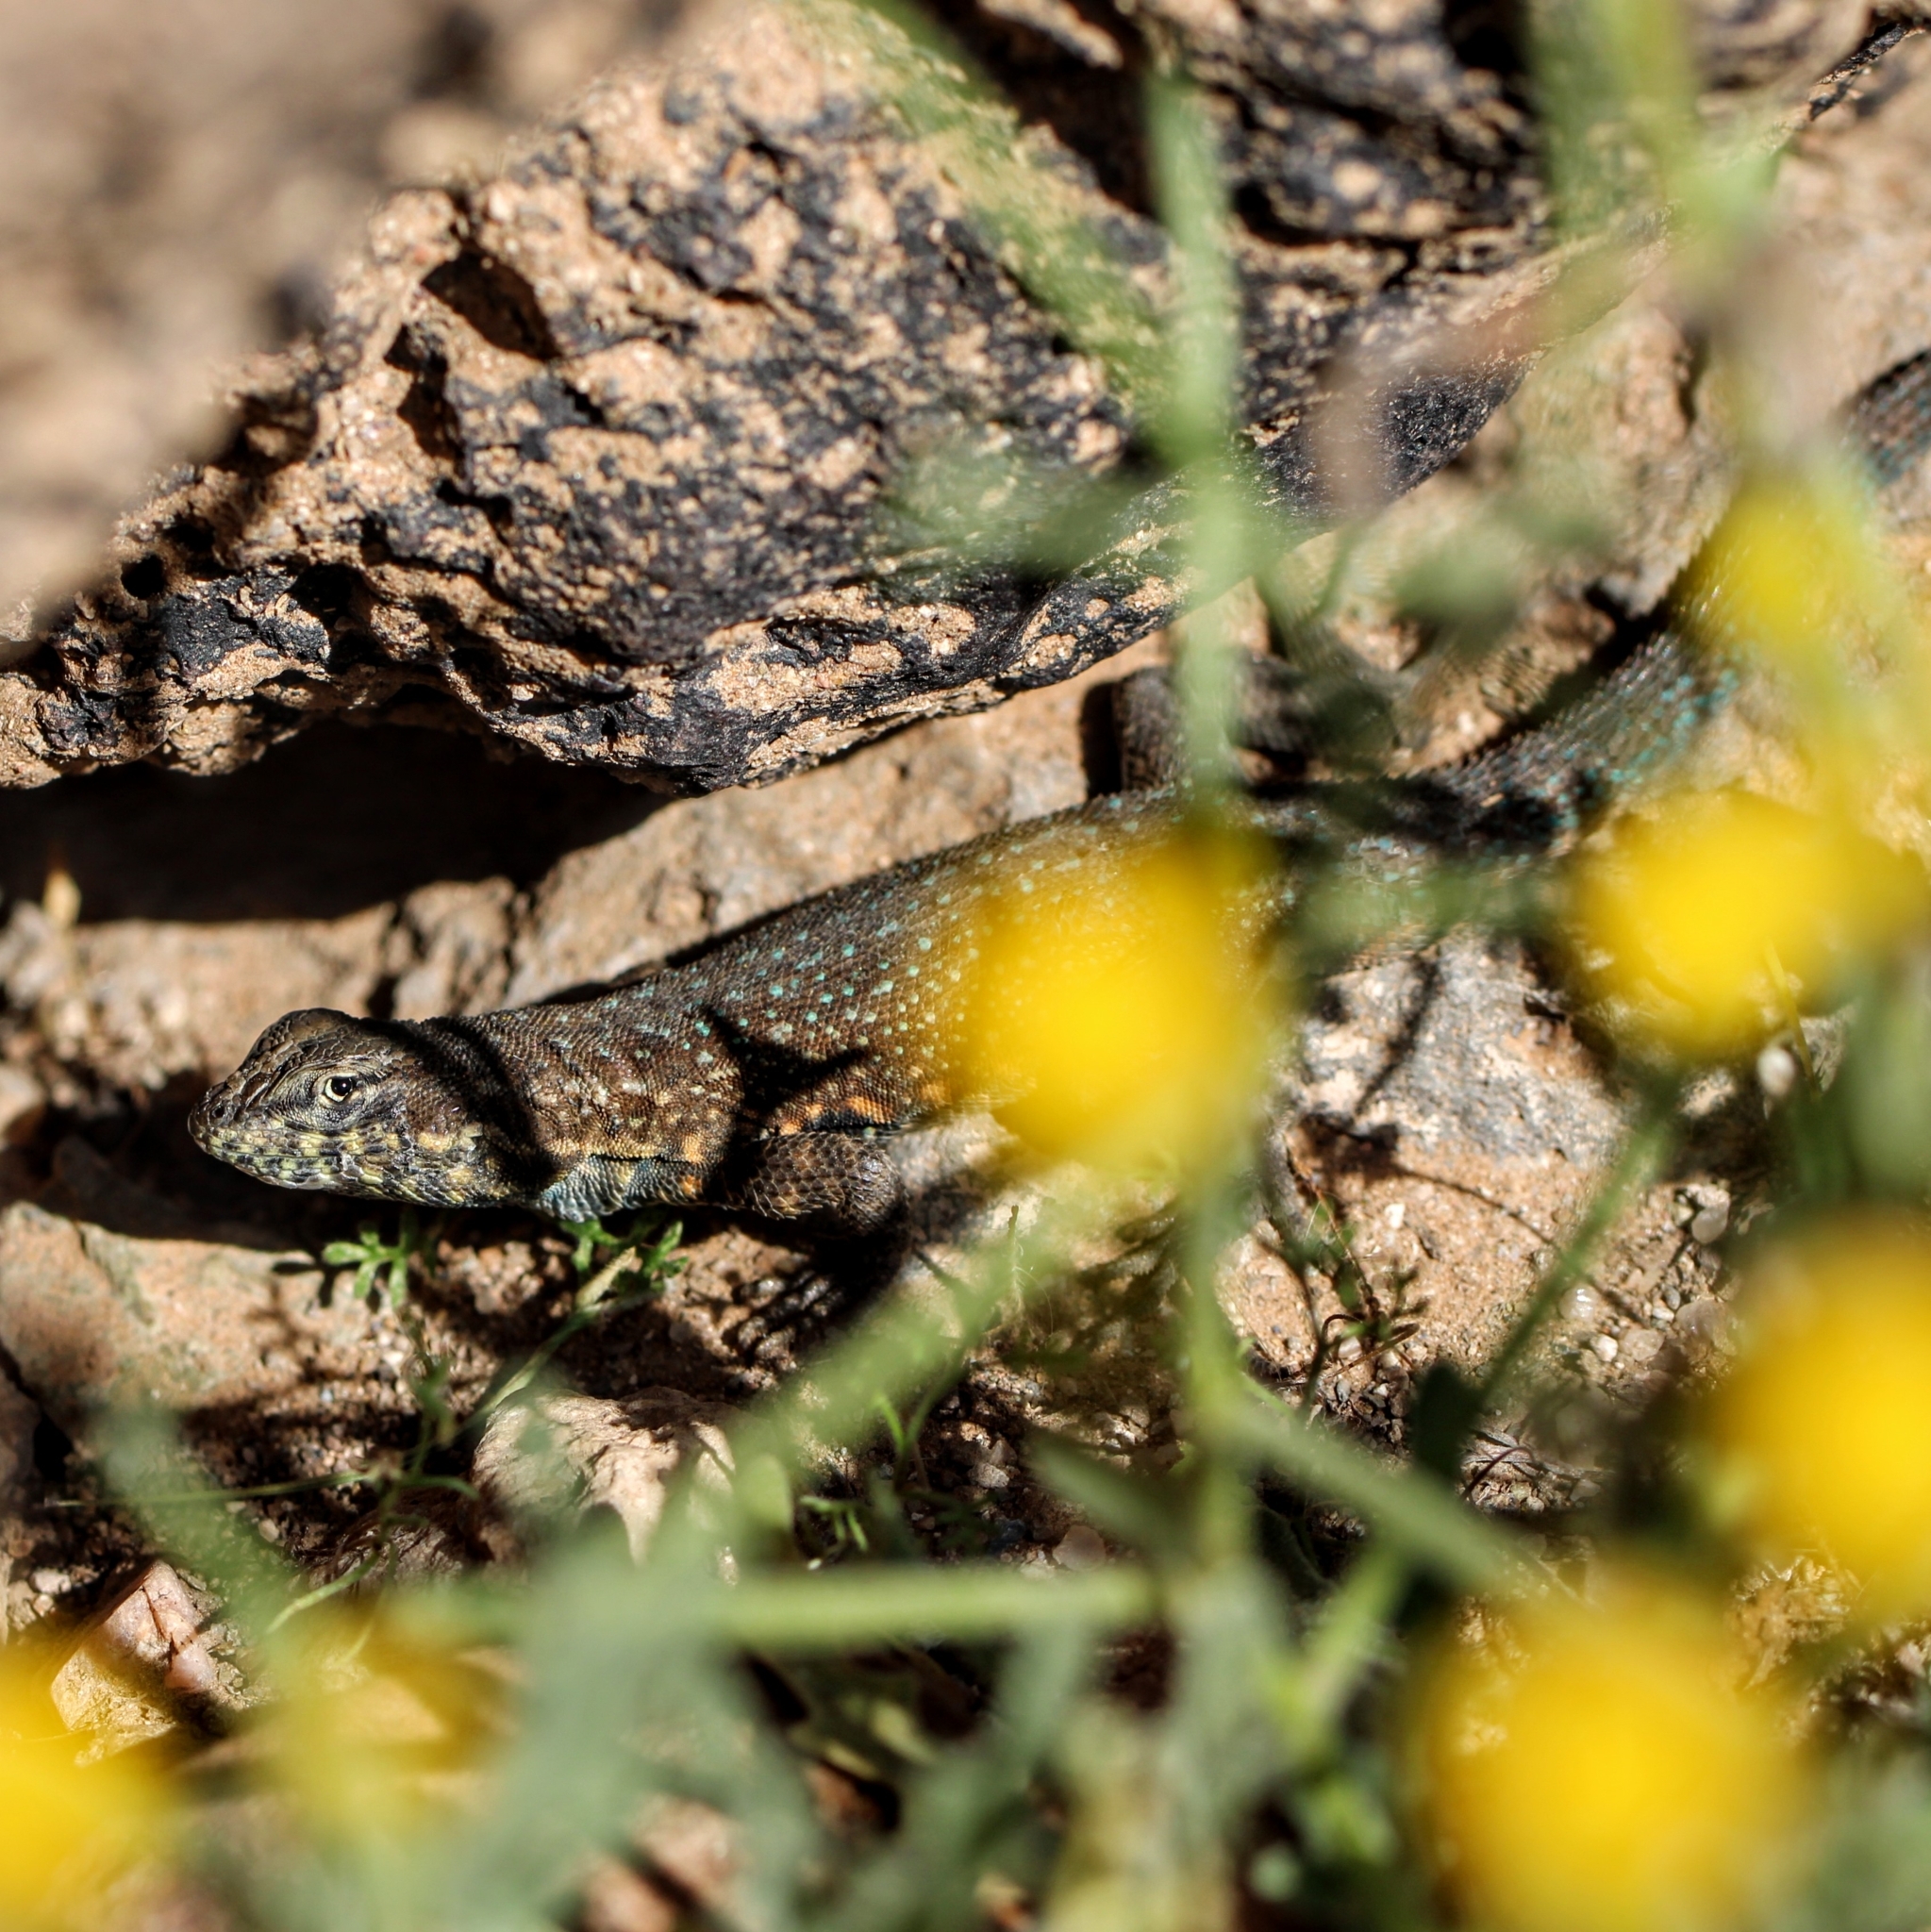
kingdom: Animalia
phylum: Chordata
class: Squamata
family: Phrynosomatidae
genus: Uta
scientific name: Uta stansburiana
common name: Side-blotched lizard
